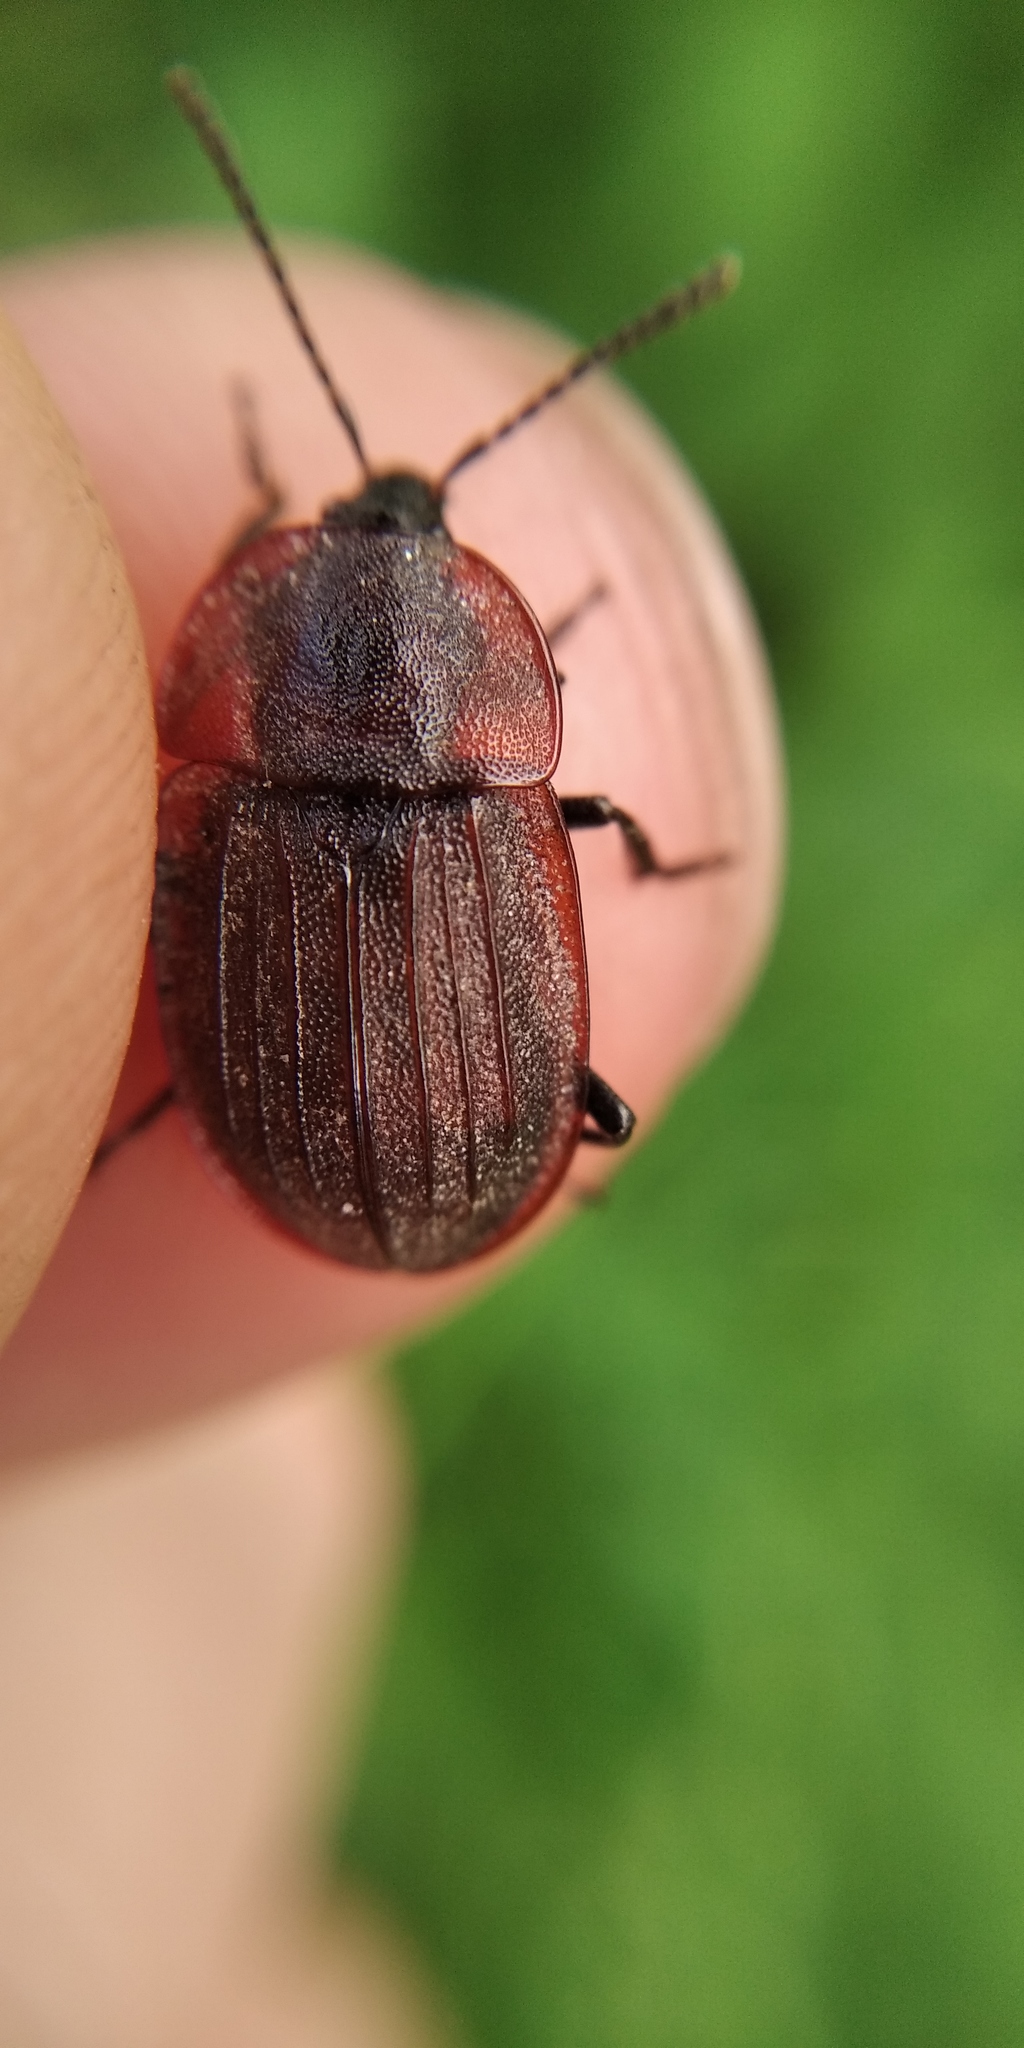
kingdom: Animalia
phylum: Arthropoda
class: Insecta
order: Coleoptera
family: Staphylinidae
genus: Silpha
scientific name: Silpha atrata
